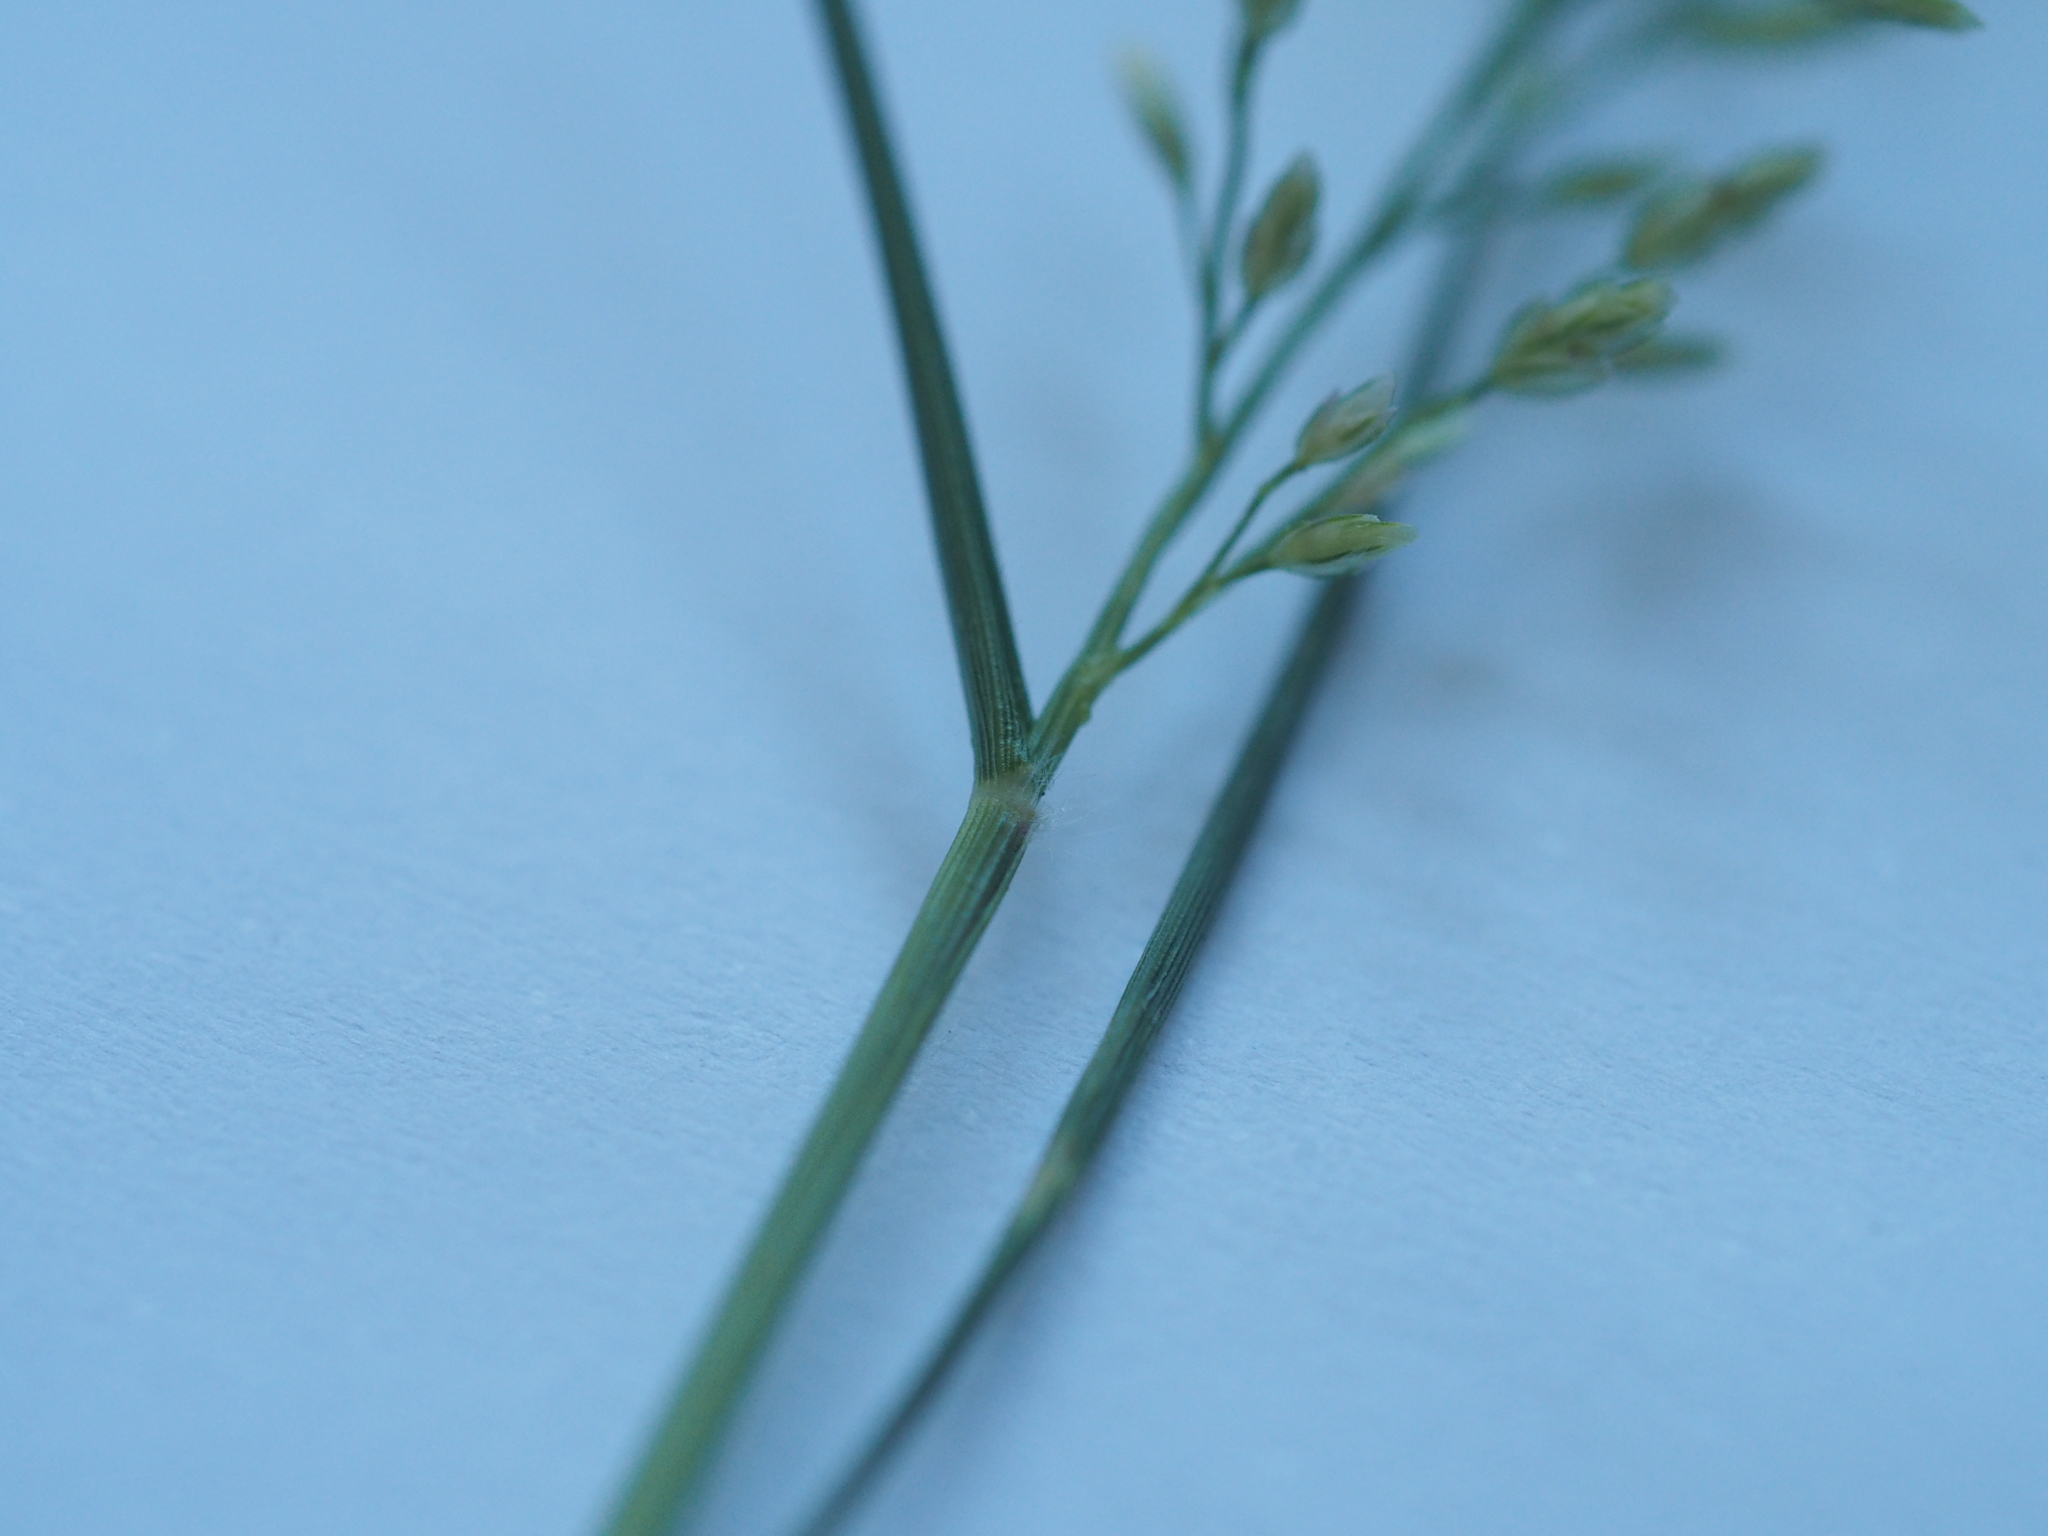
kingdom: Plantae
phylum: Tracheophyta
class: Liliopsida
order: Poales
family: Poaceae
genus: Eragrostis
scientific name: Eragrostis minor
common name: Small love-grass
